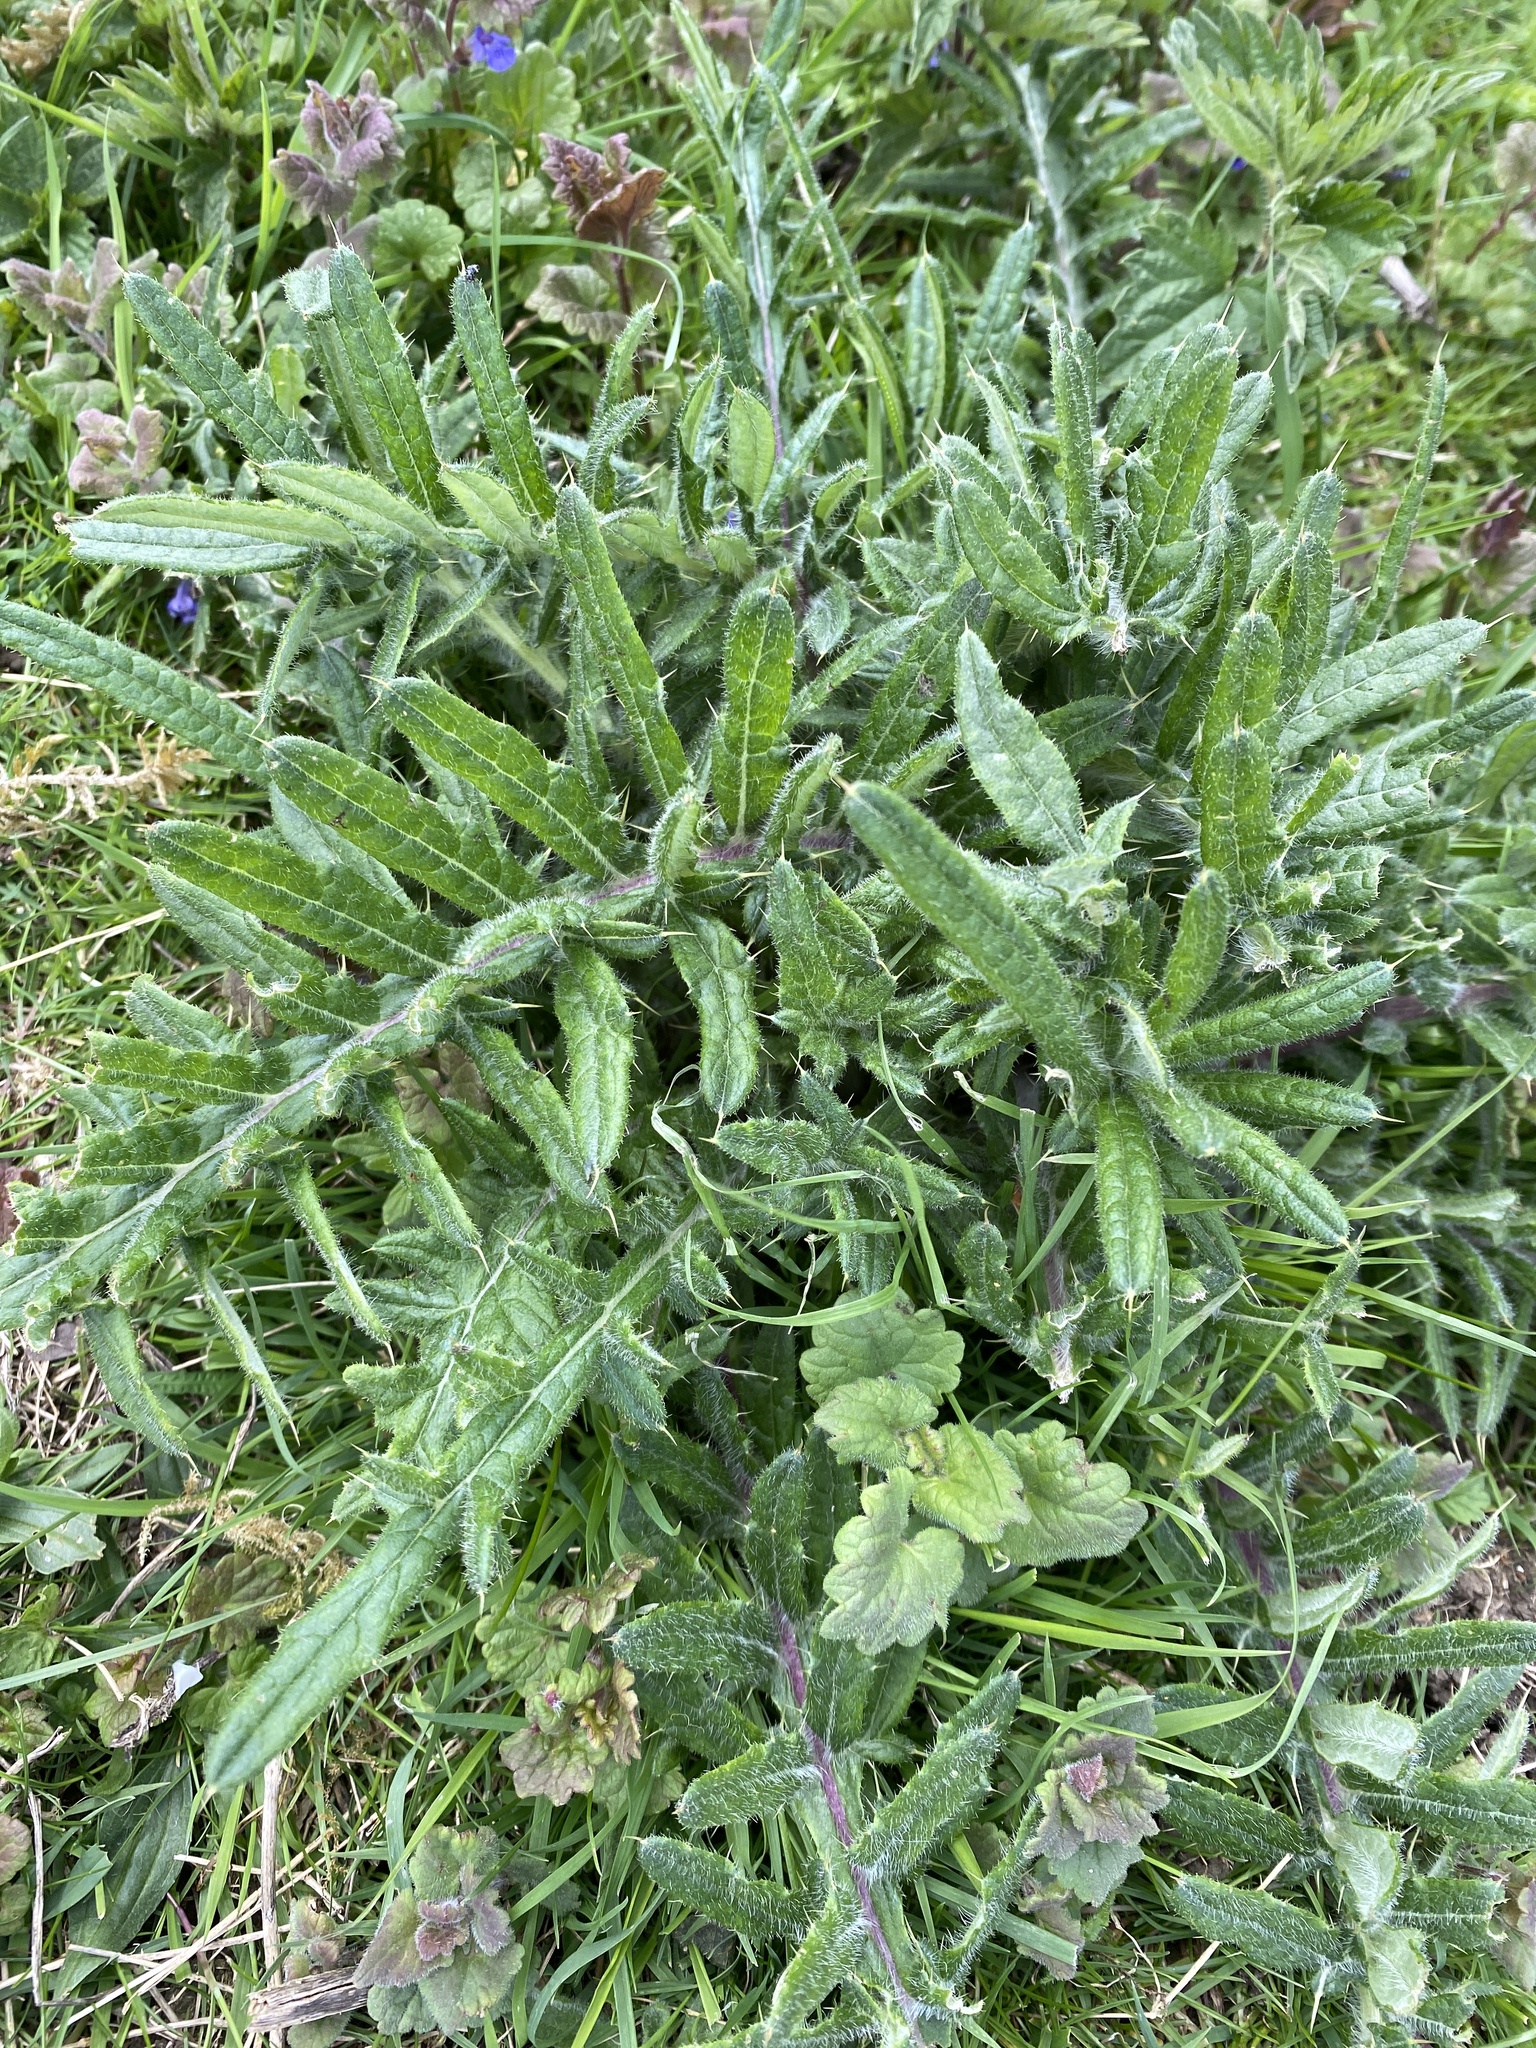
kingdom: Plantae
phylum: Tracheophyta
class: Magnoliopsida
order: Asterales
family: Asteraceae
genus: Lophiolepis
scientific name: Lophiolepis eriophora
